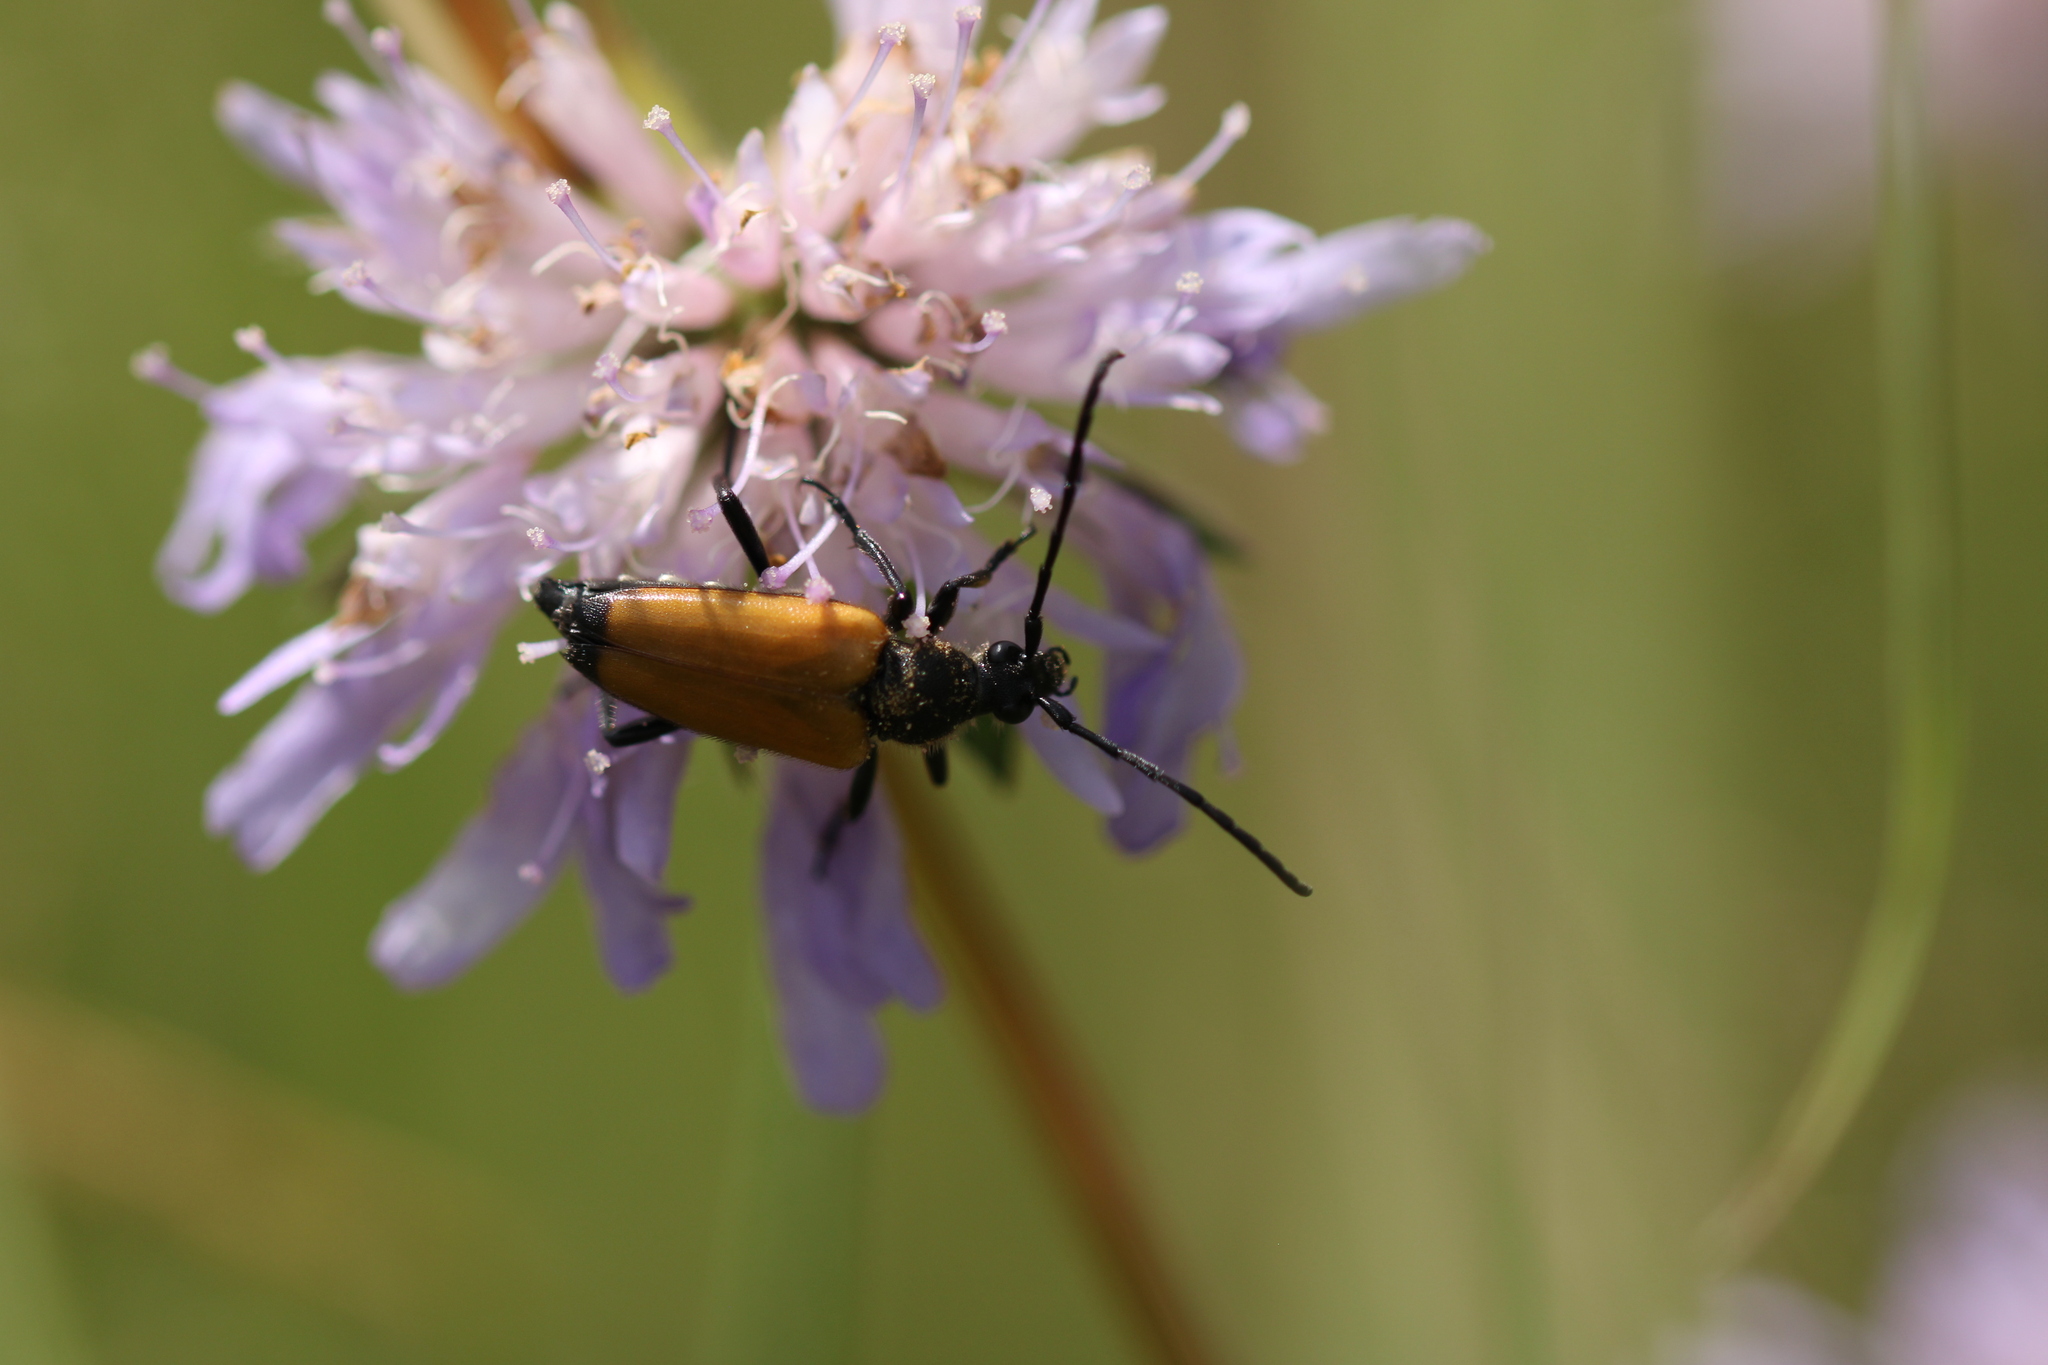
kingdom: Animalia
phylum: Arthropoda
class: Insecta
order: Coleoptera
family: Cerambycidae
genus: Paracorymbia
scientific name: Paracorymbia fulva
